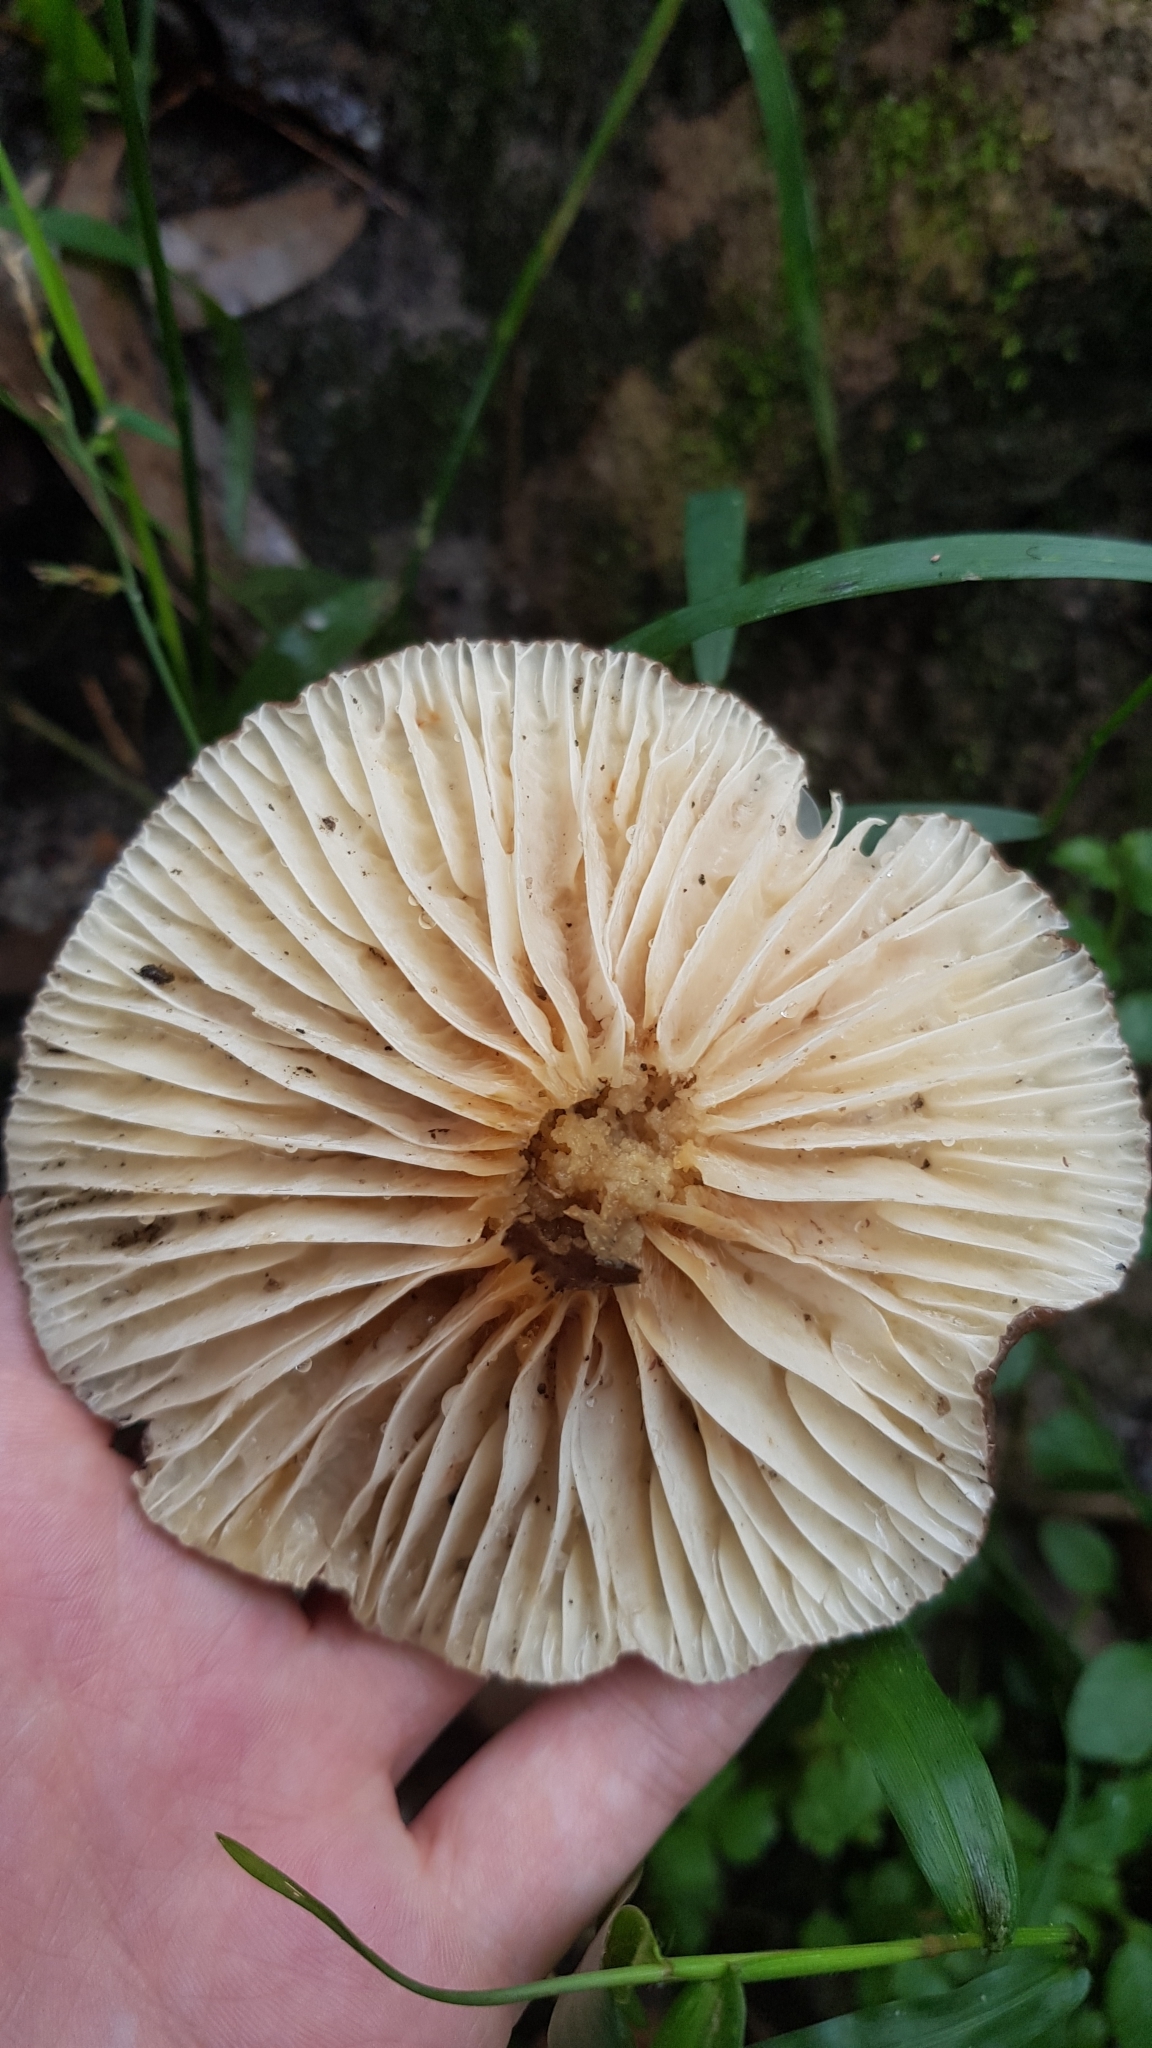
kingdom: Fungi
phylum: Basidiomycota
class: Agaricomycetes
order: Russulales
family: Russulaceae
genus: Lactifluus
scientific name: Lactifluus wirrabara
